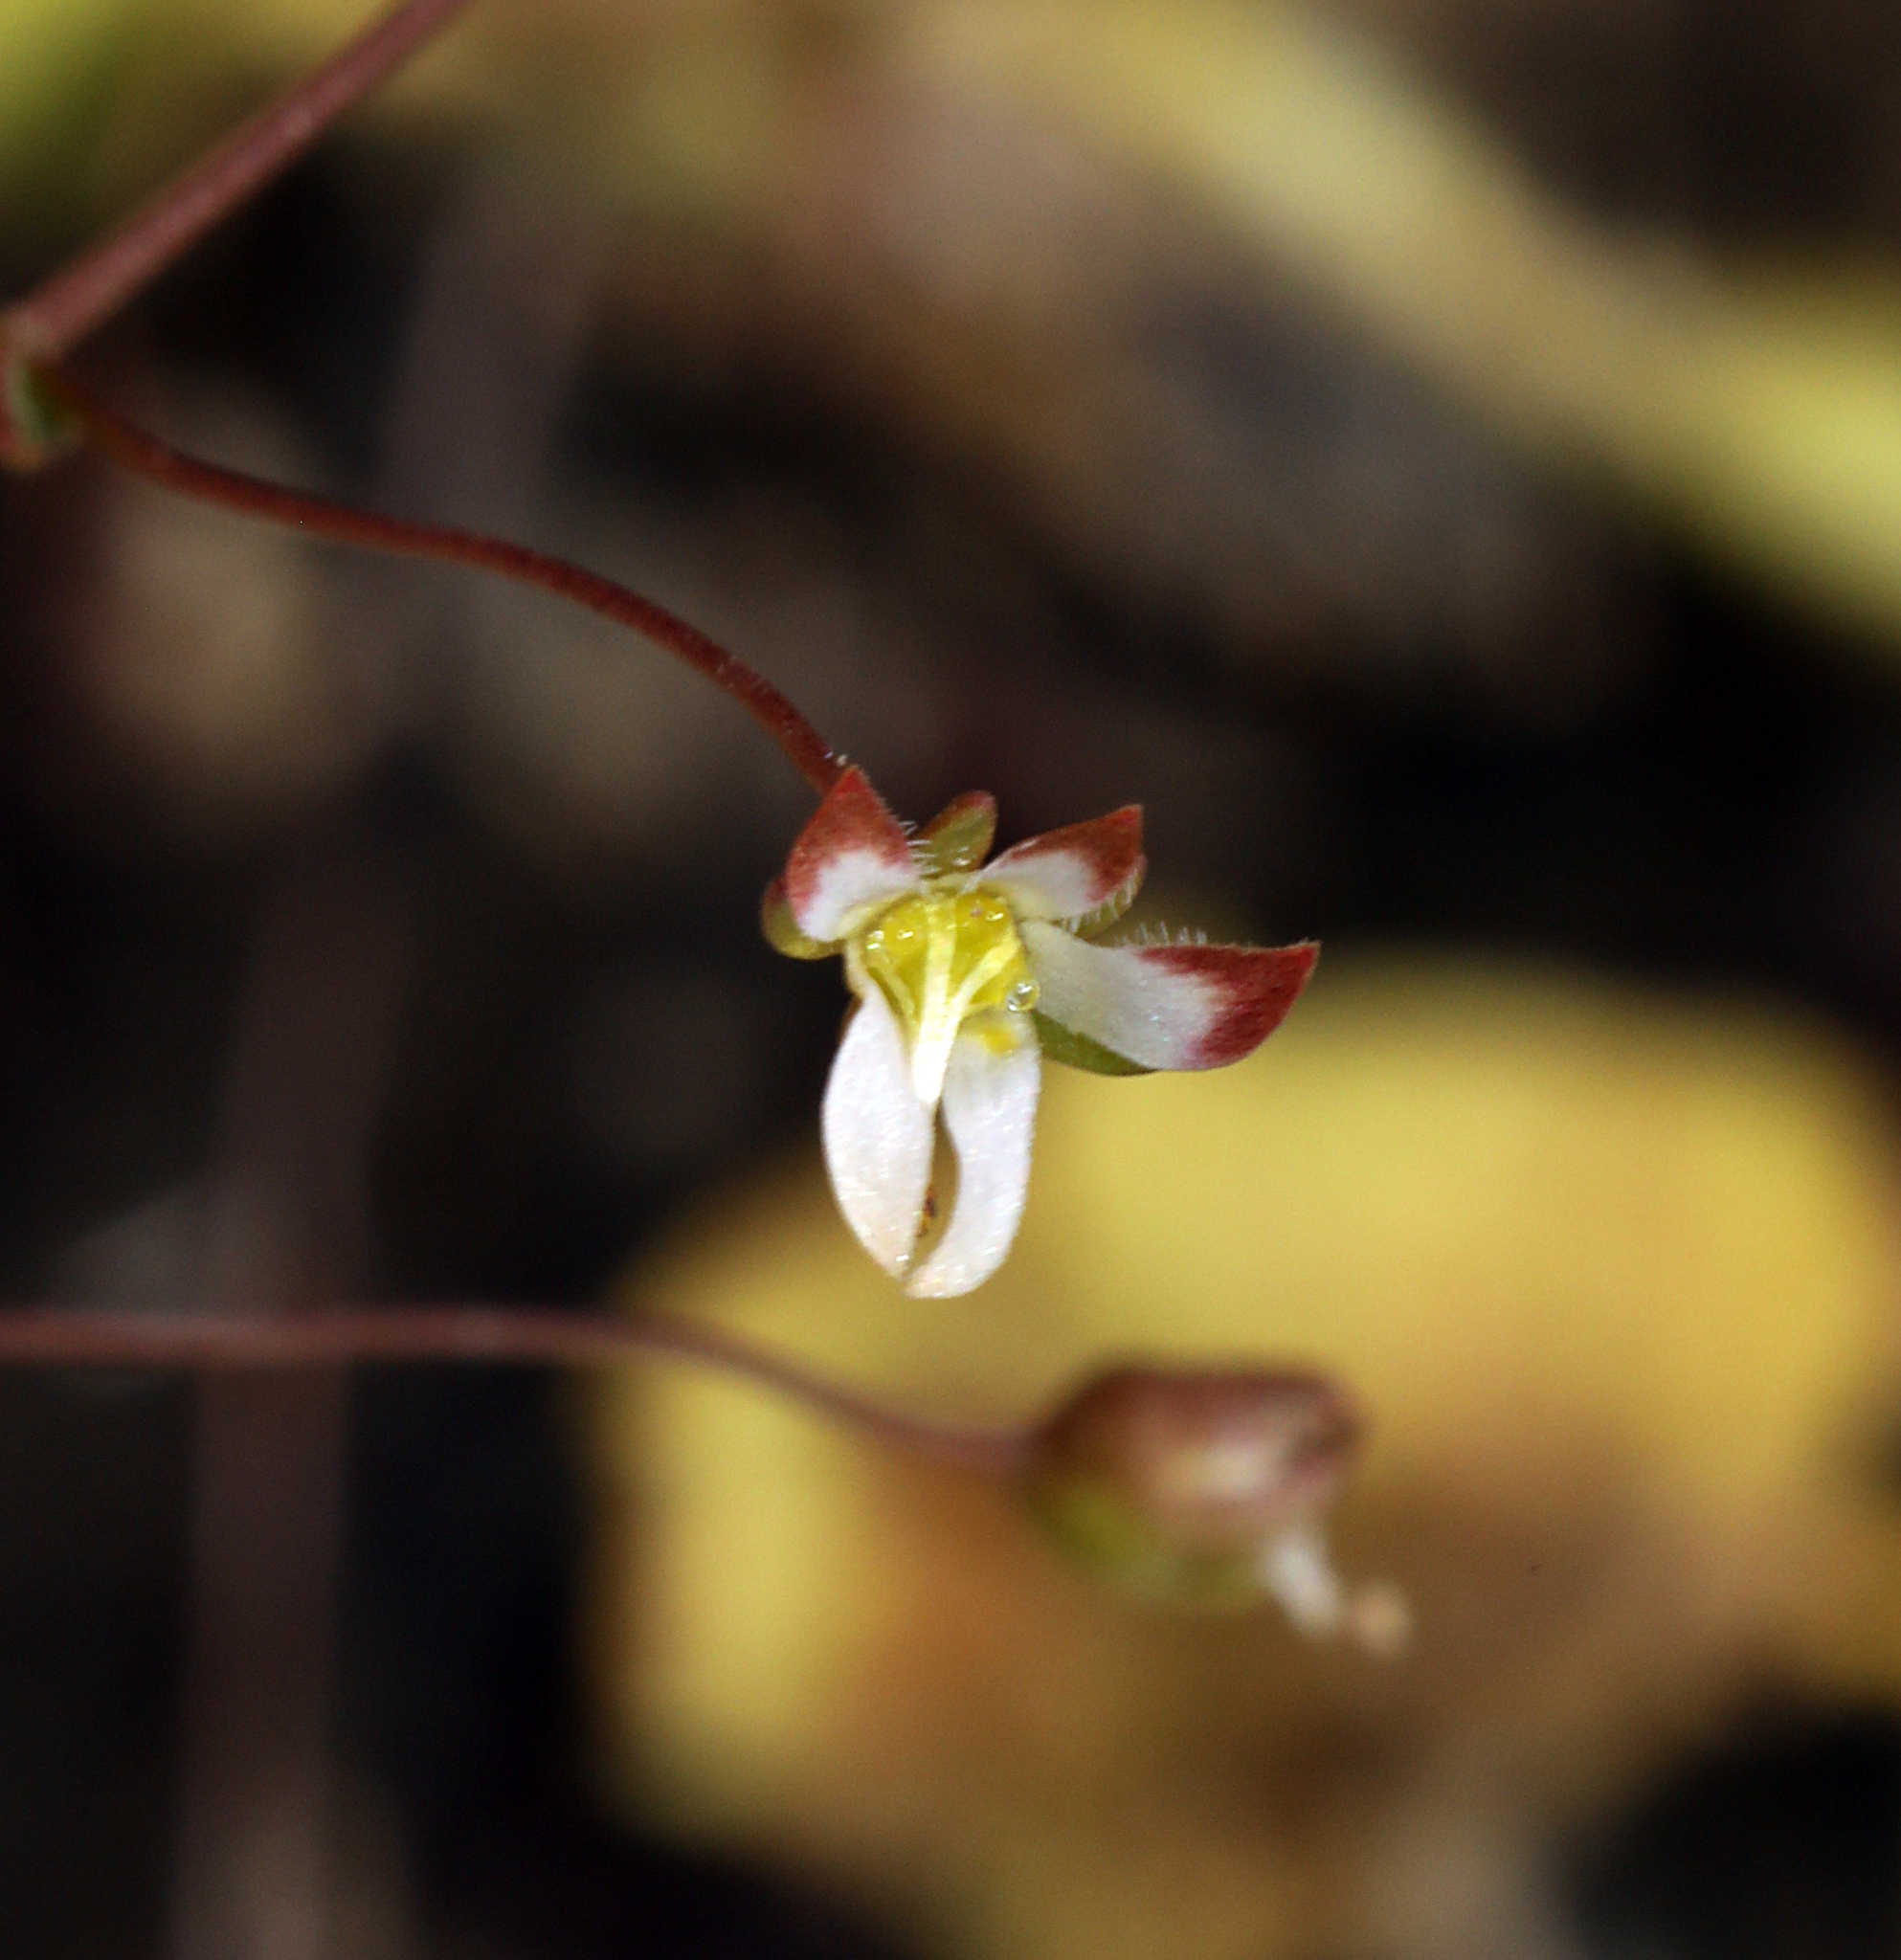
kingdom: Plantae
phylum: Tracheophyta
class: Magnoliopsida
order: Asterales
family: Campanulaceae
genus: Nemacladus
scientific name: Nemacladus morefieldii
